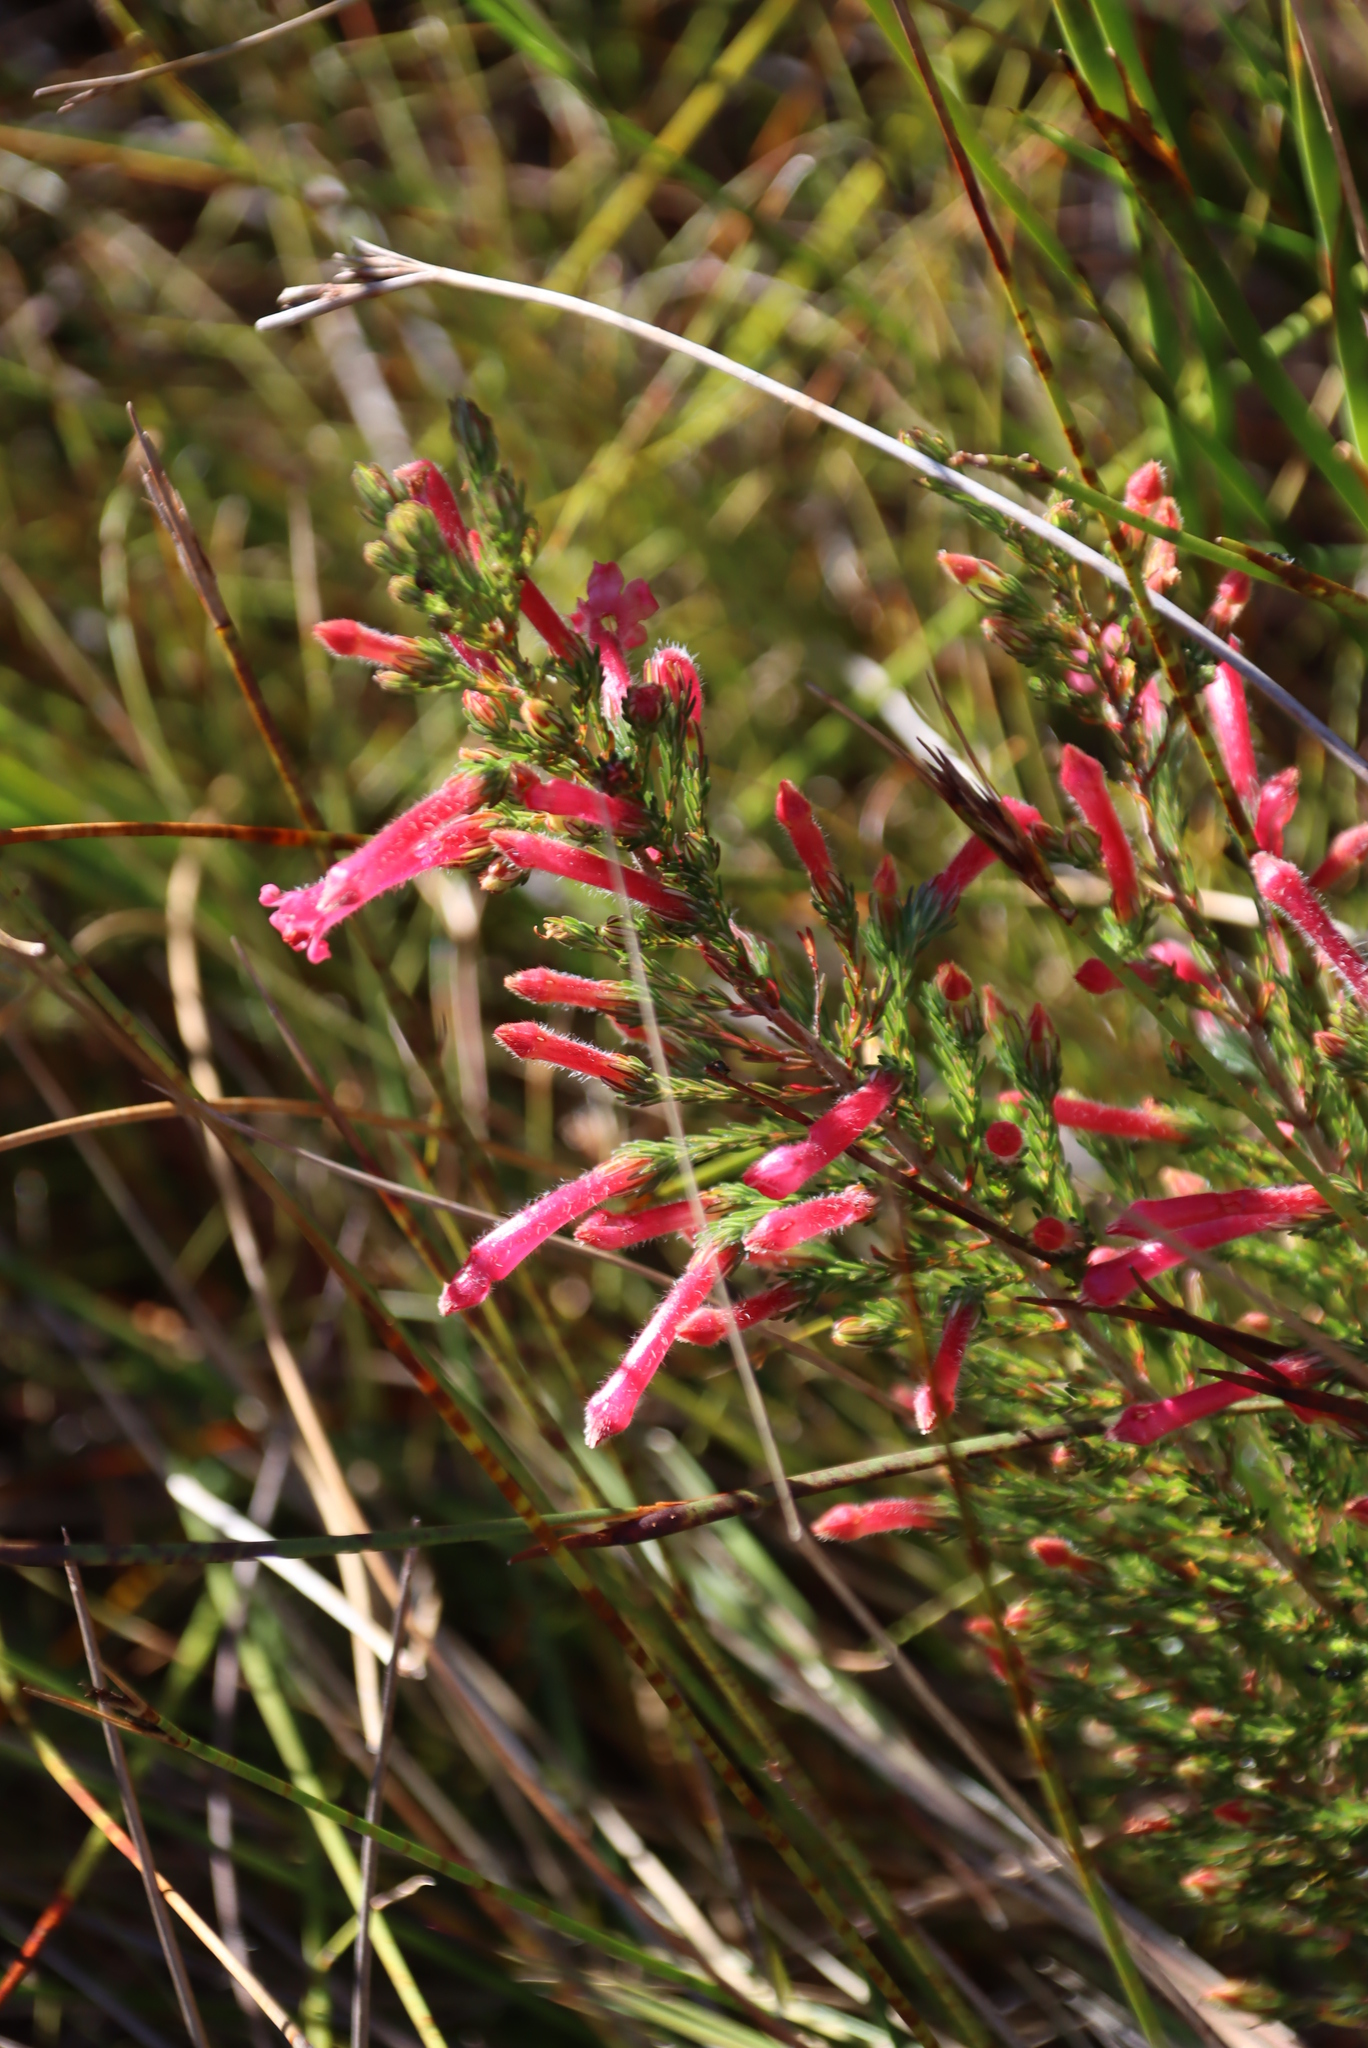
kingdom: Plantae
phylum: Tracheophyta
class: Magnoliopsida
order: Ericales
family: Ericaceae
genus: Erica
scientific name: Erica curviflora
